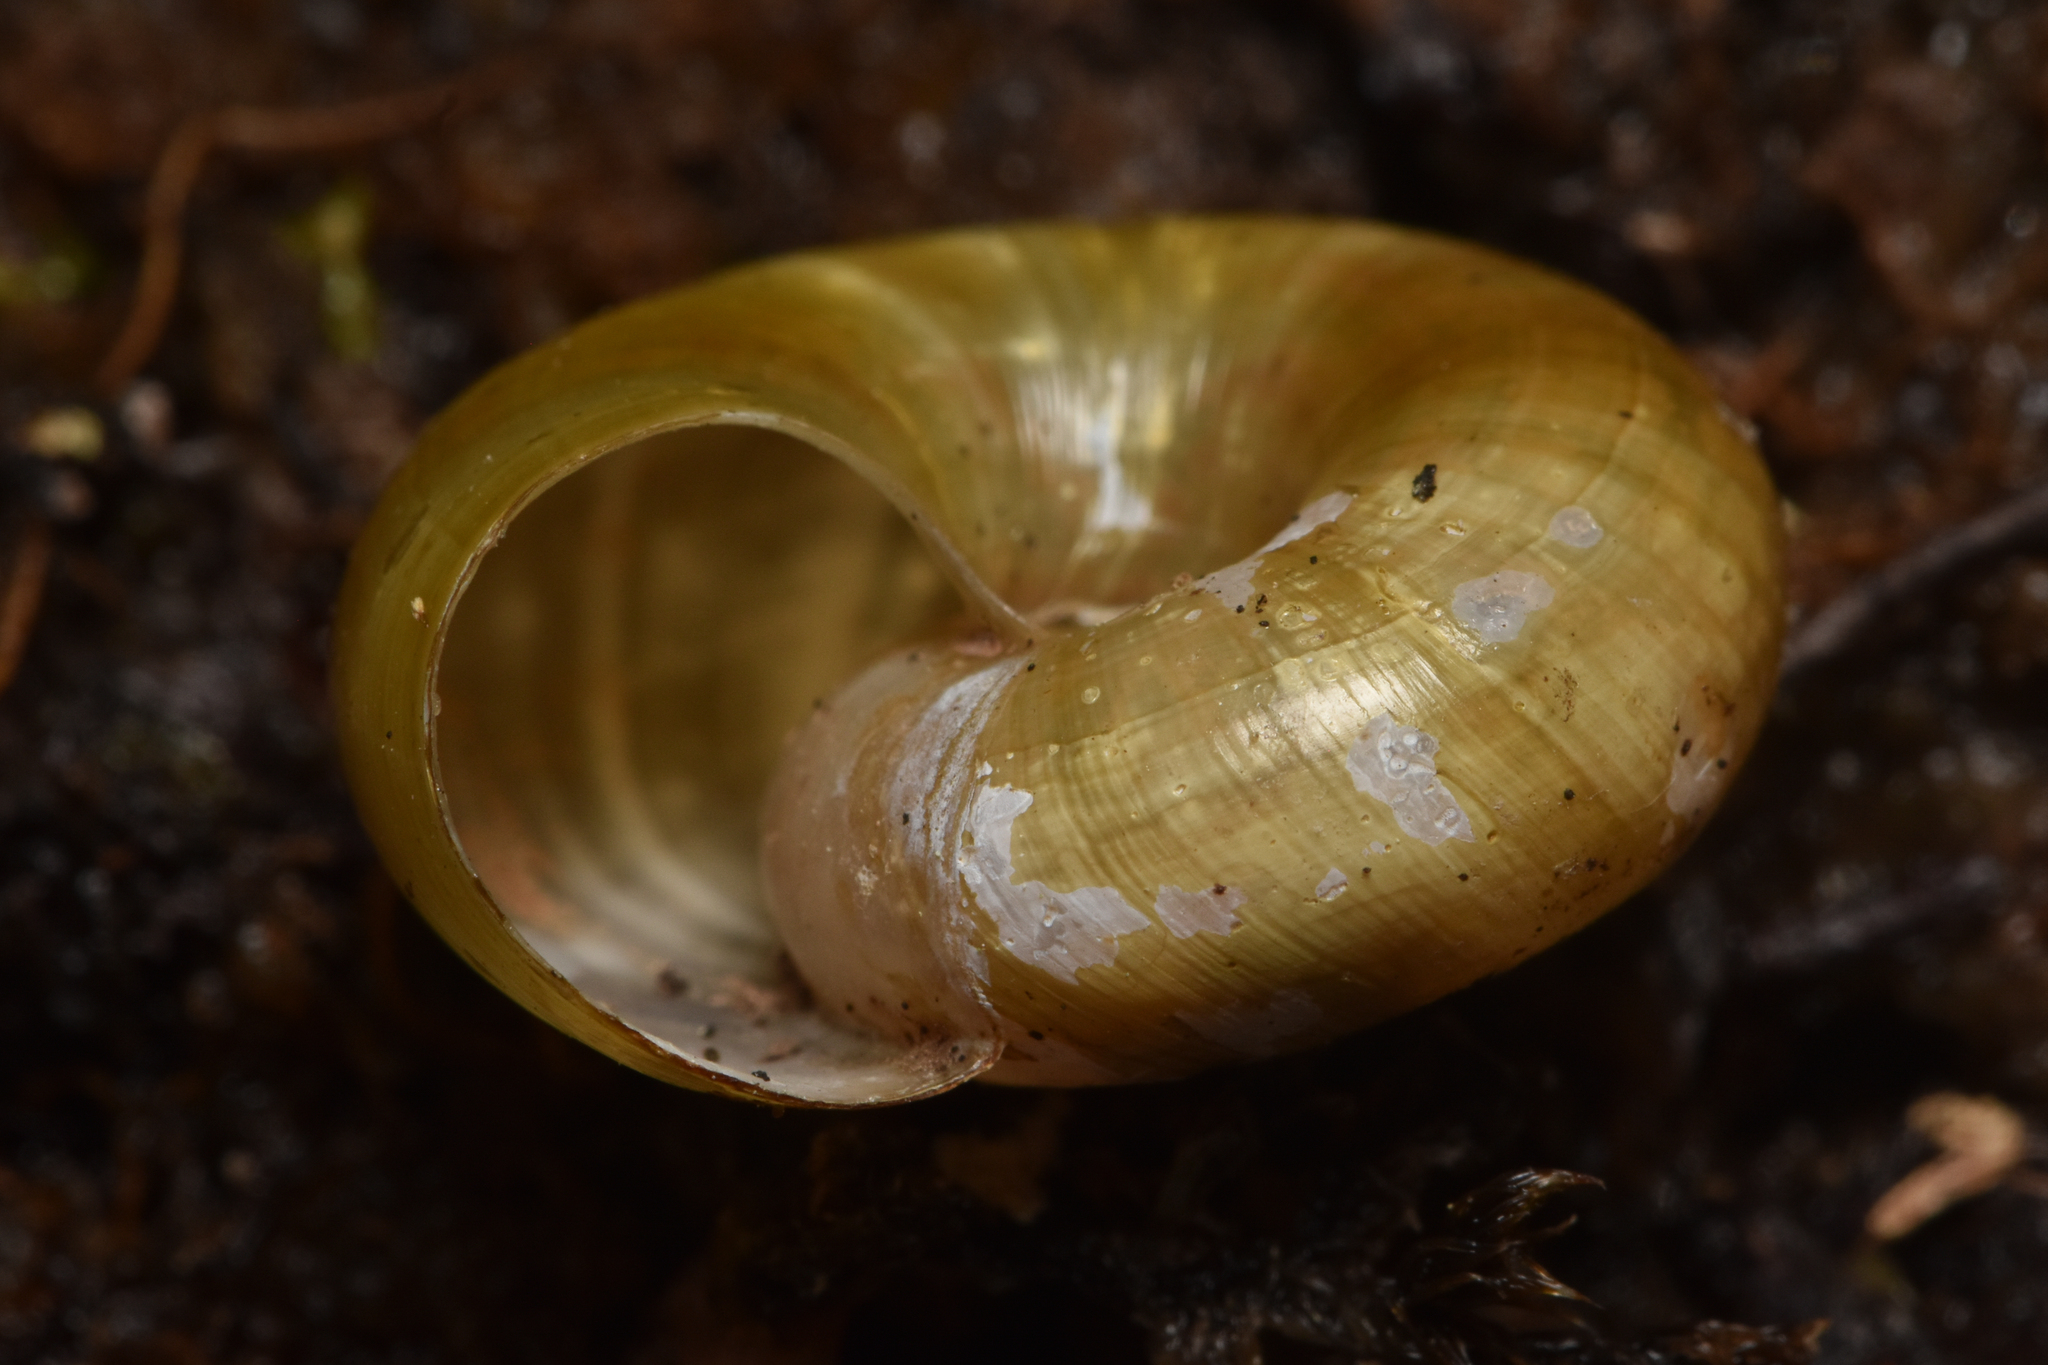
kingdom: Animalia
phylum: Mollusca
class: Gastropoda
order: Stylommatophora
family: Haplotrematidae
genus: Haplotrema
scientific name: Haplotrema vancouverense
